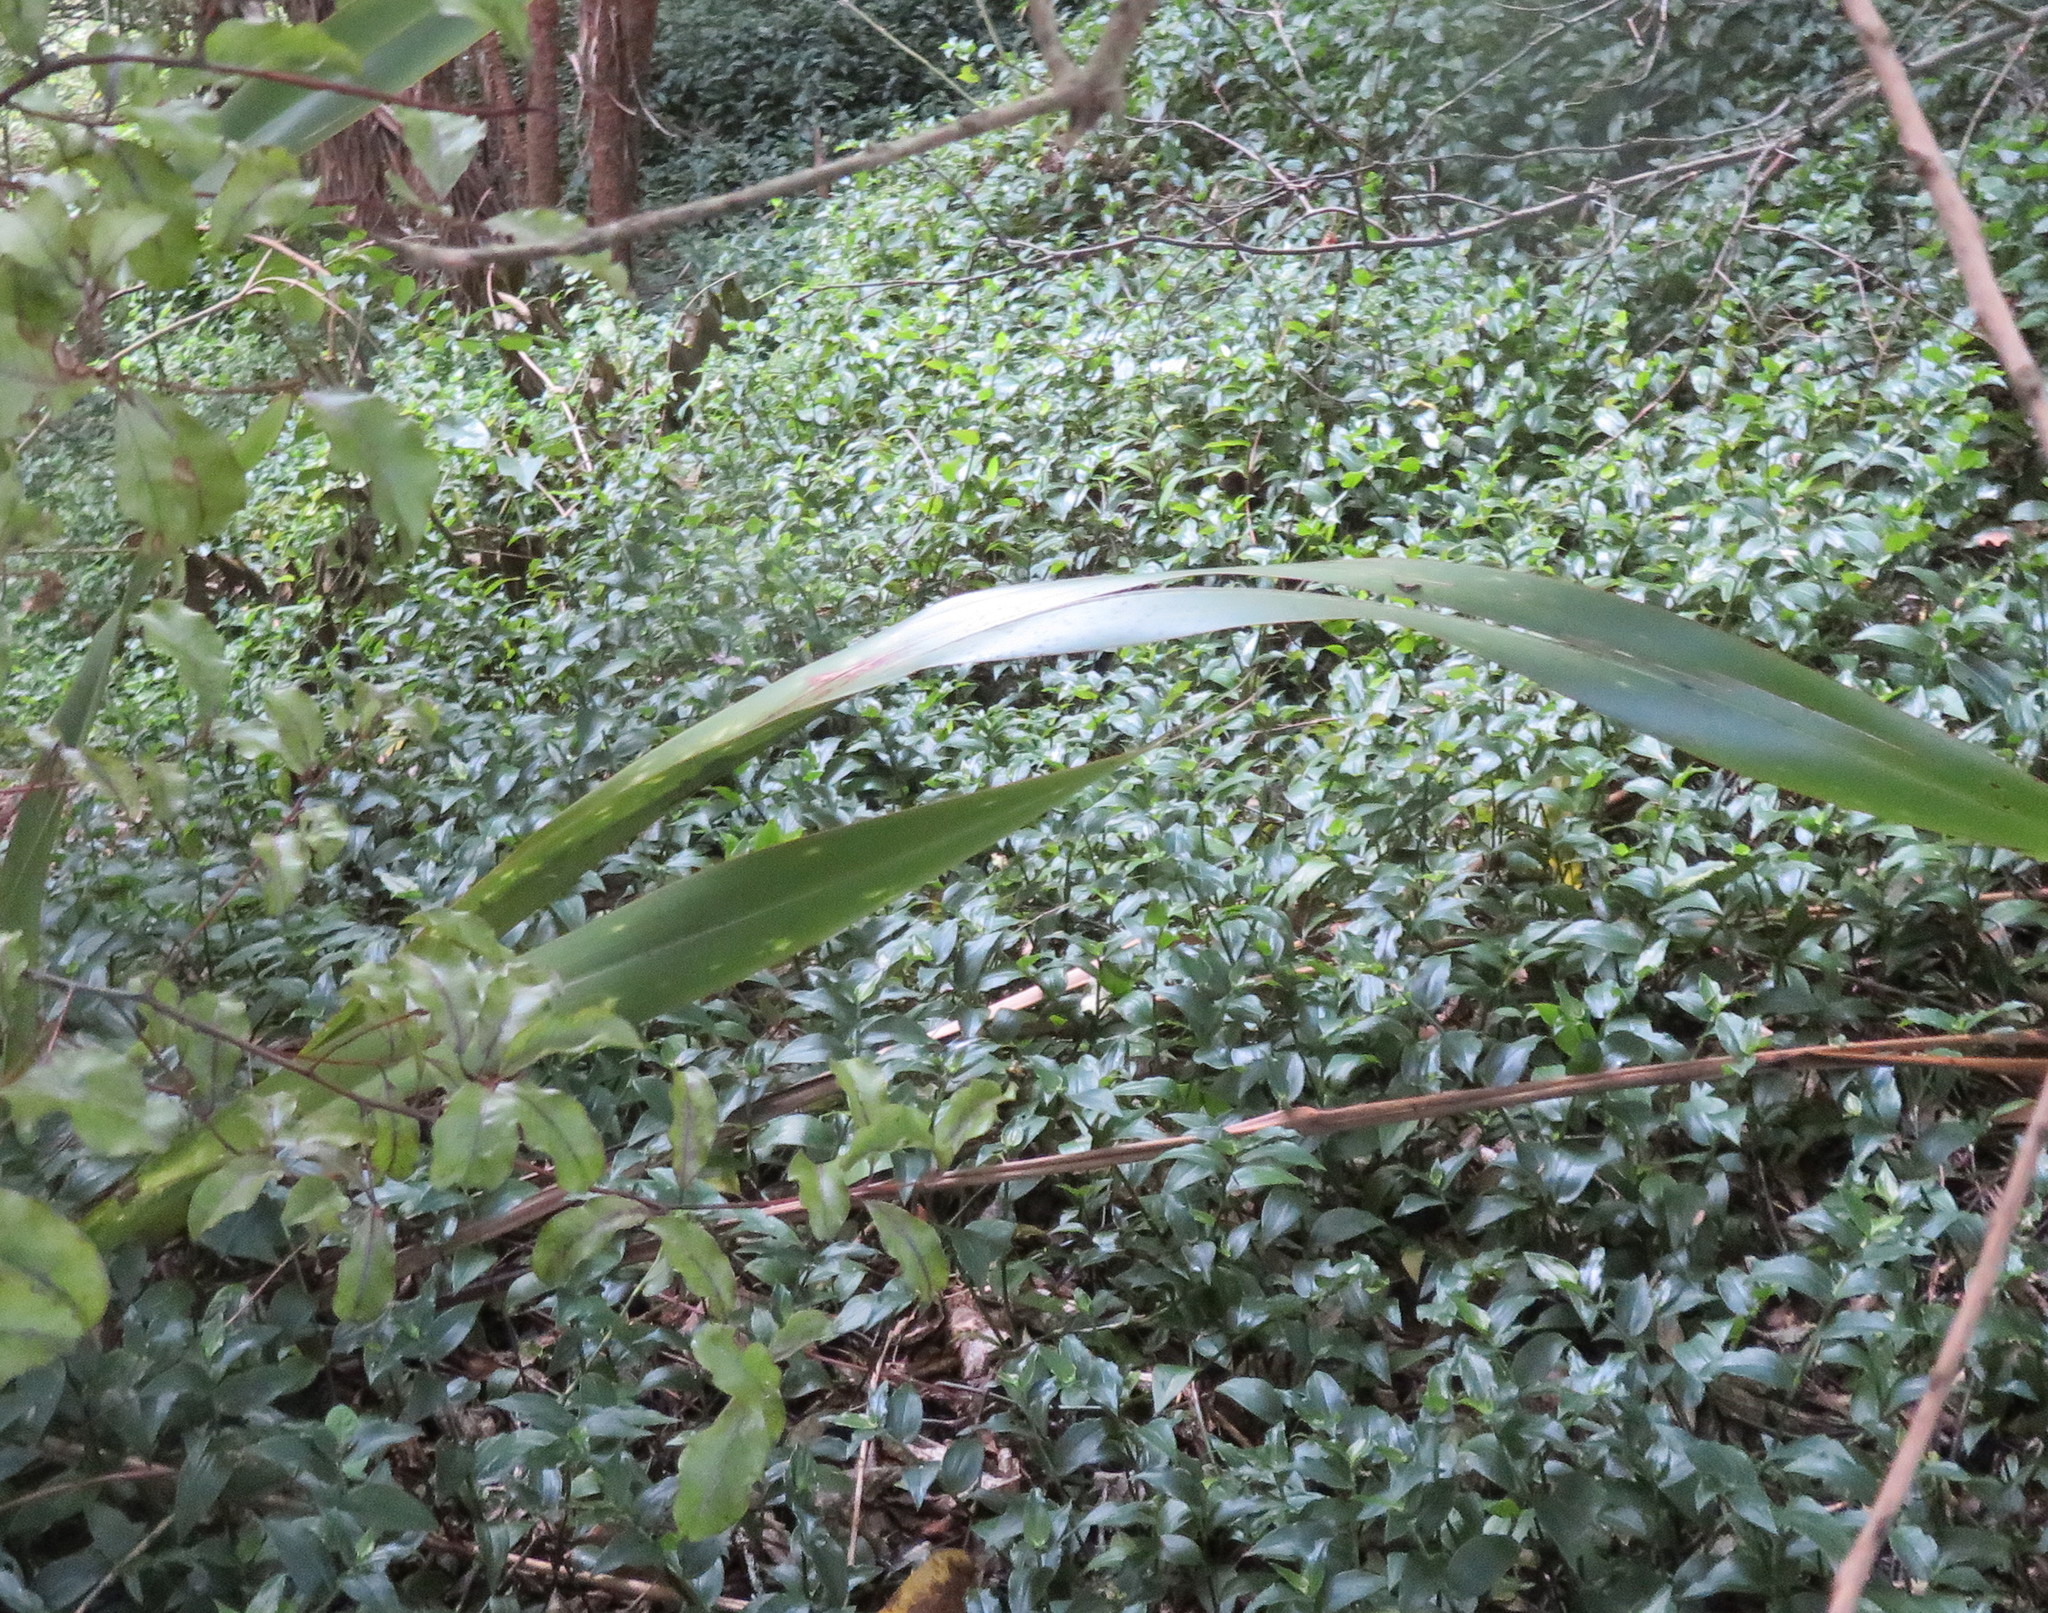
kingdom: Plantae
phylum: Tracheophyta
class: Liliopsida
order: Commelinales
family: Commelinaceae
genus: Tradescantia
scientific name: Tradescantia fluminensis
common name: Wandering-jew
